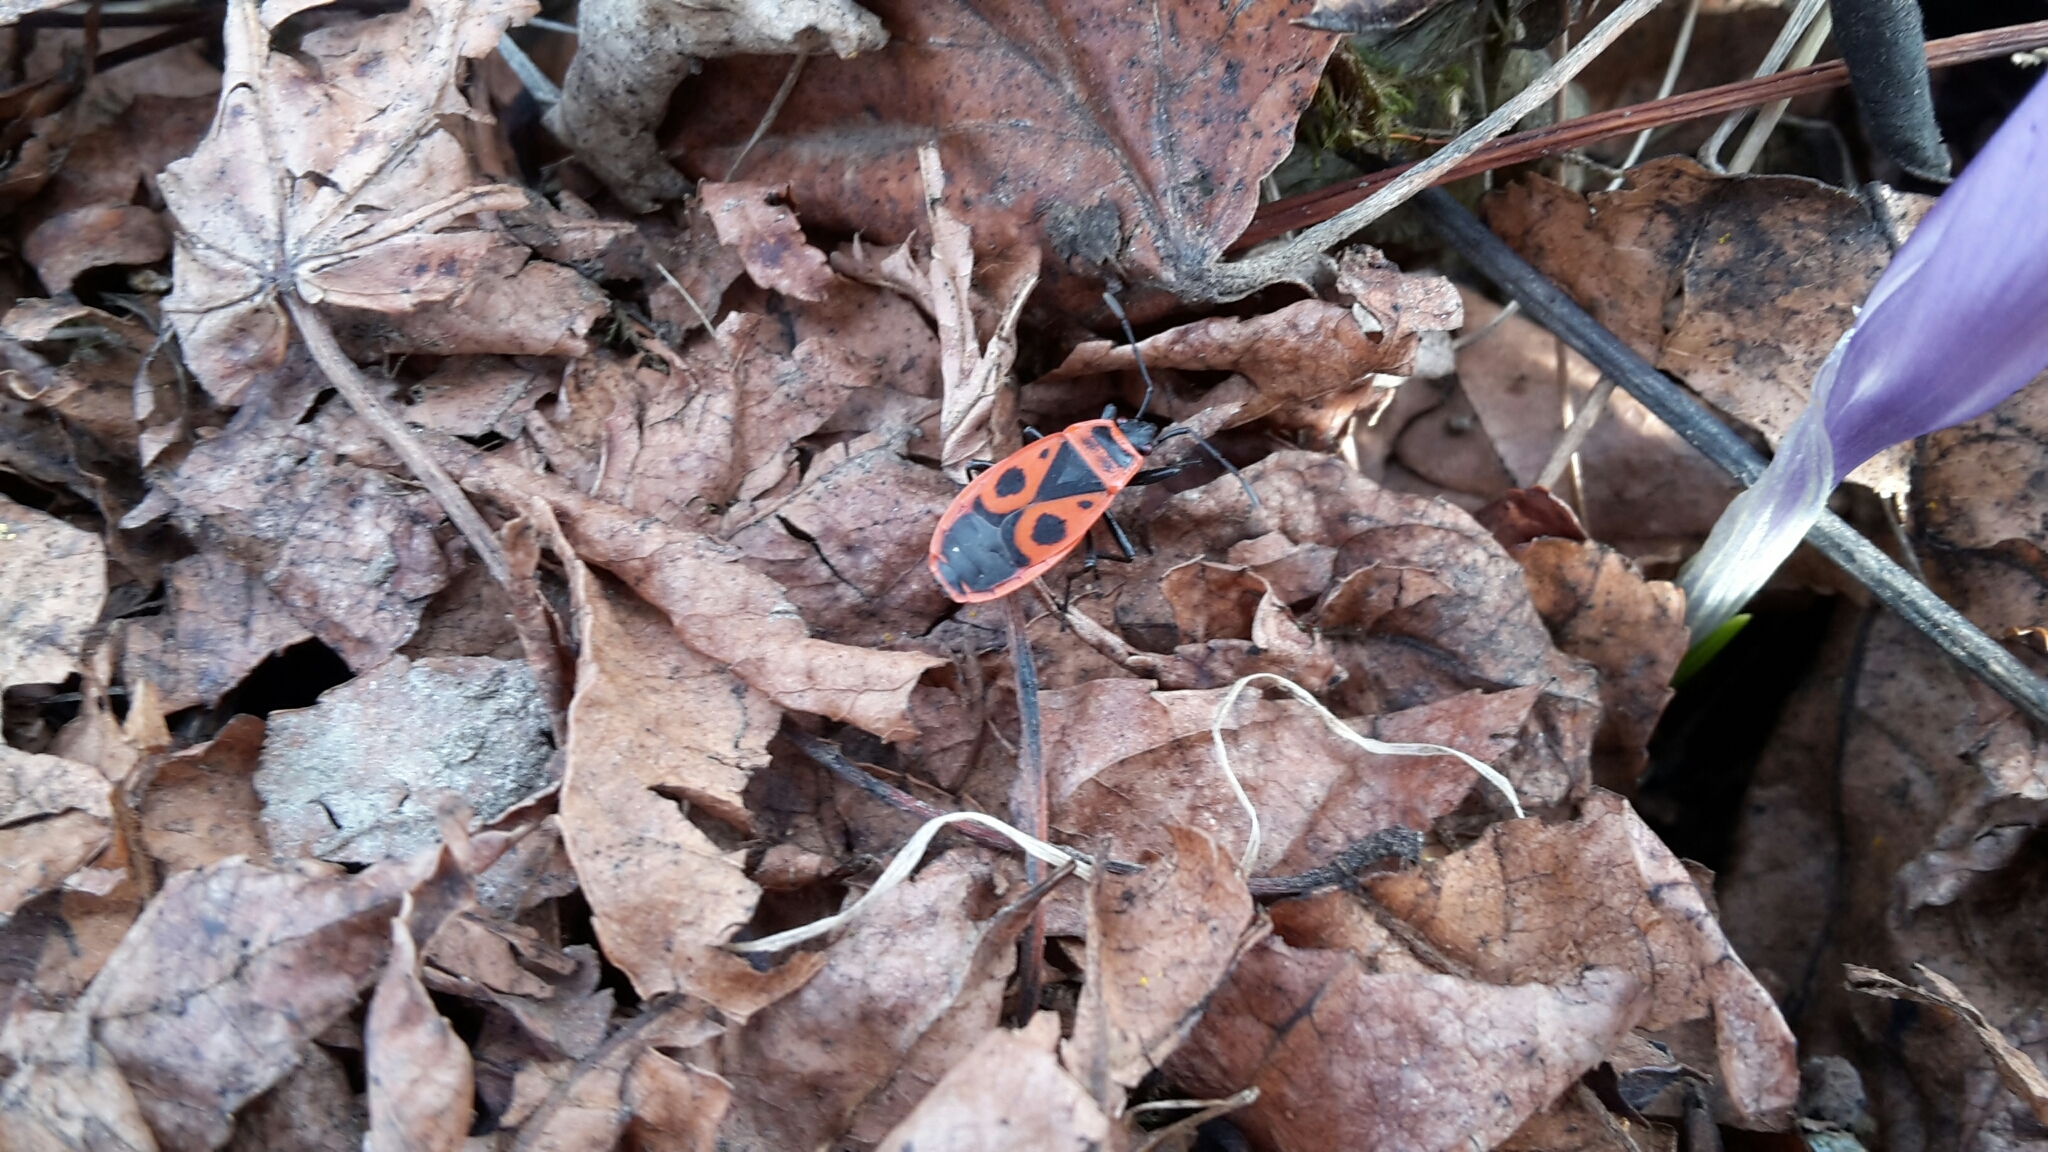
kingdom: Animalia
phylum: Arthropoda
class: Insecta
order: Hemiptera
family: Pyrrhocoridae
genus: Pyrrhocoris
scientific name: Pyrrhocoris apterus
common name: Firebug
